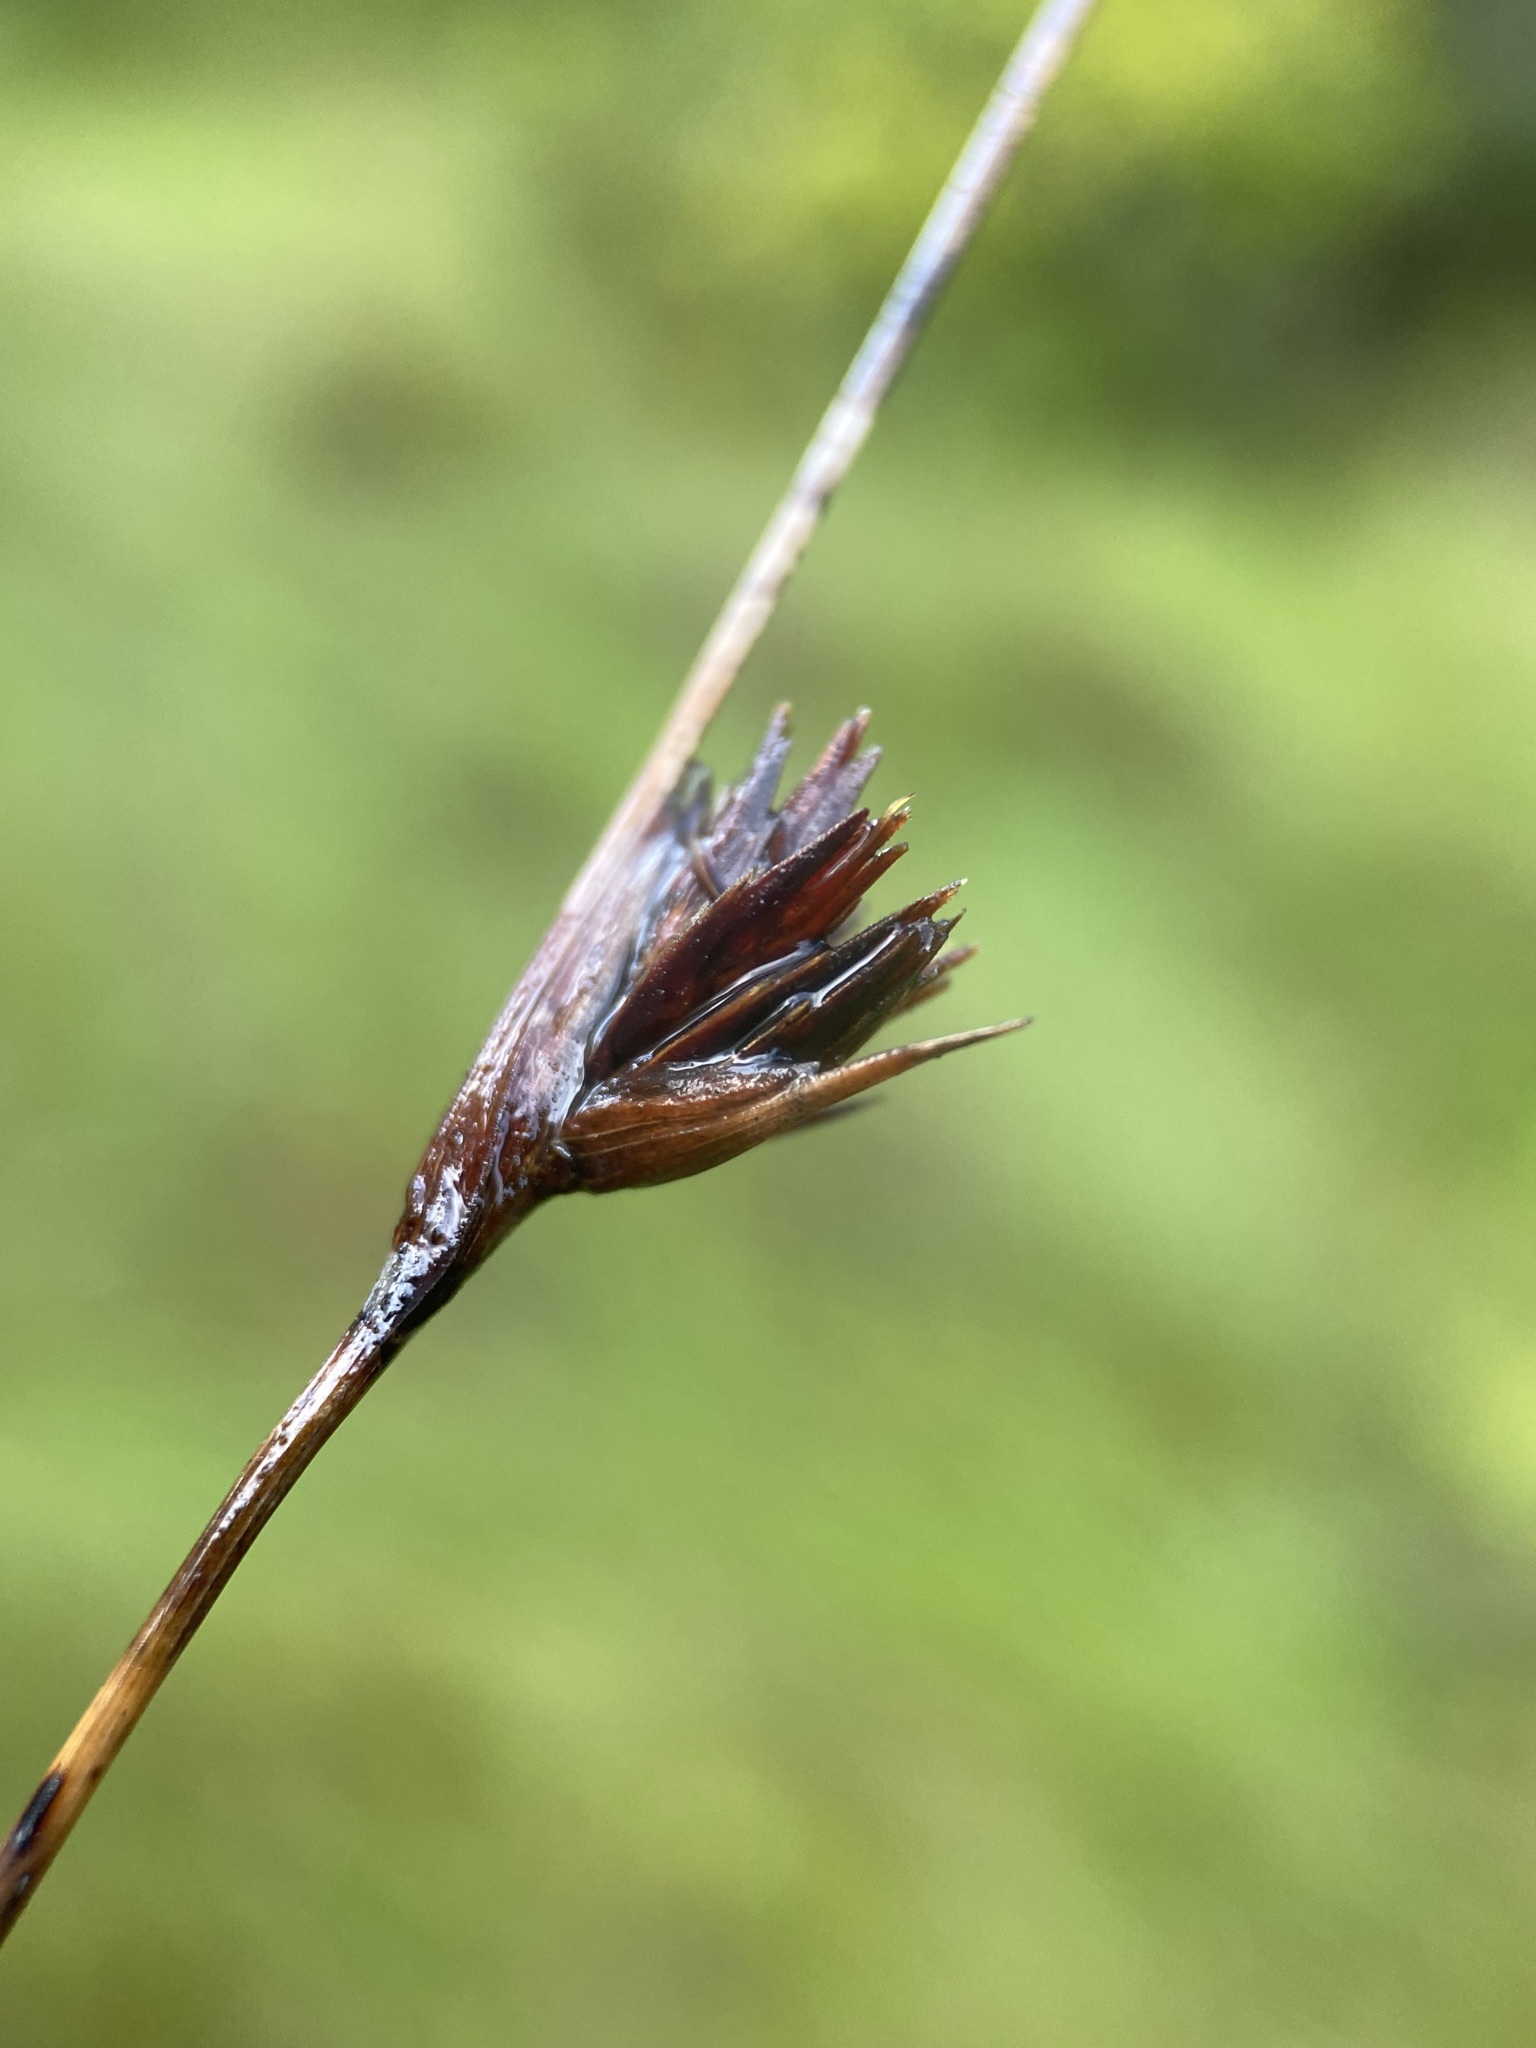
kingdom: Plantae
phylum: Tracheophyta
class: Liliopsida
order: Poales
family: Cyperaceae
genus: Schoenus
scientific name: Schoenus nigricans
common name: Black bog-rush
